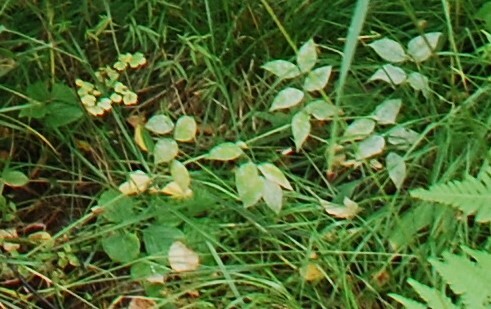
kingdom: Plantae
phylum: Tracheophyta
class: Magnoliopsida
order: Fabales
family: Fabaceae
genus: Vicia
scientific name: Vicia ramuliflora
